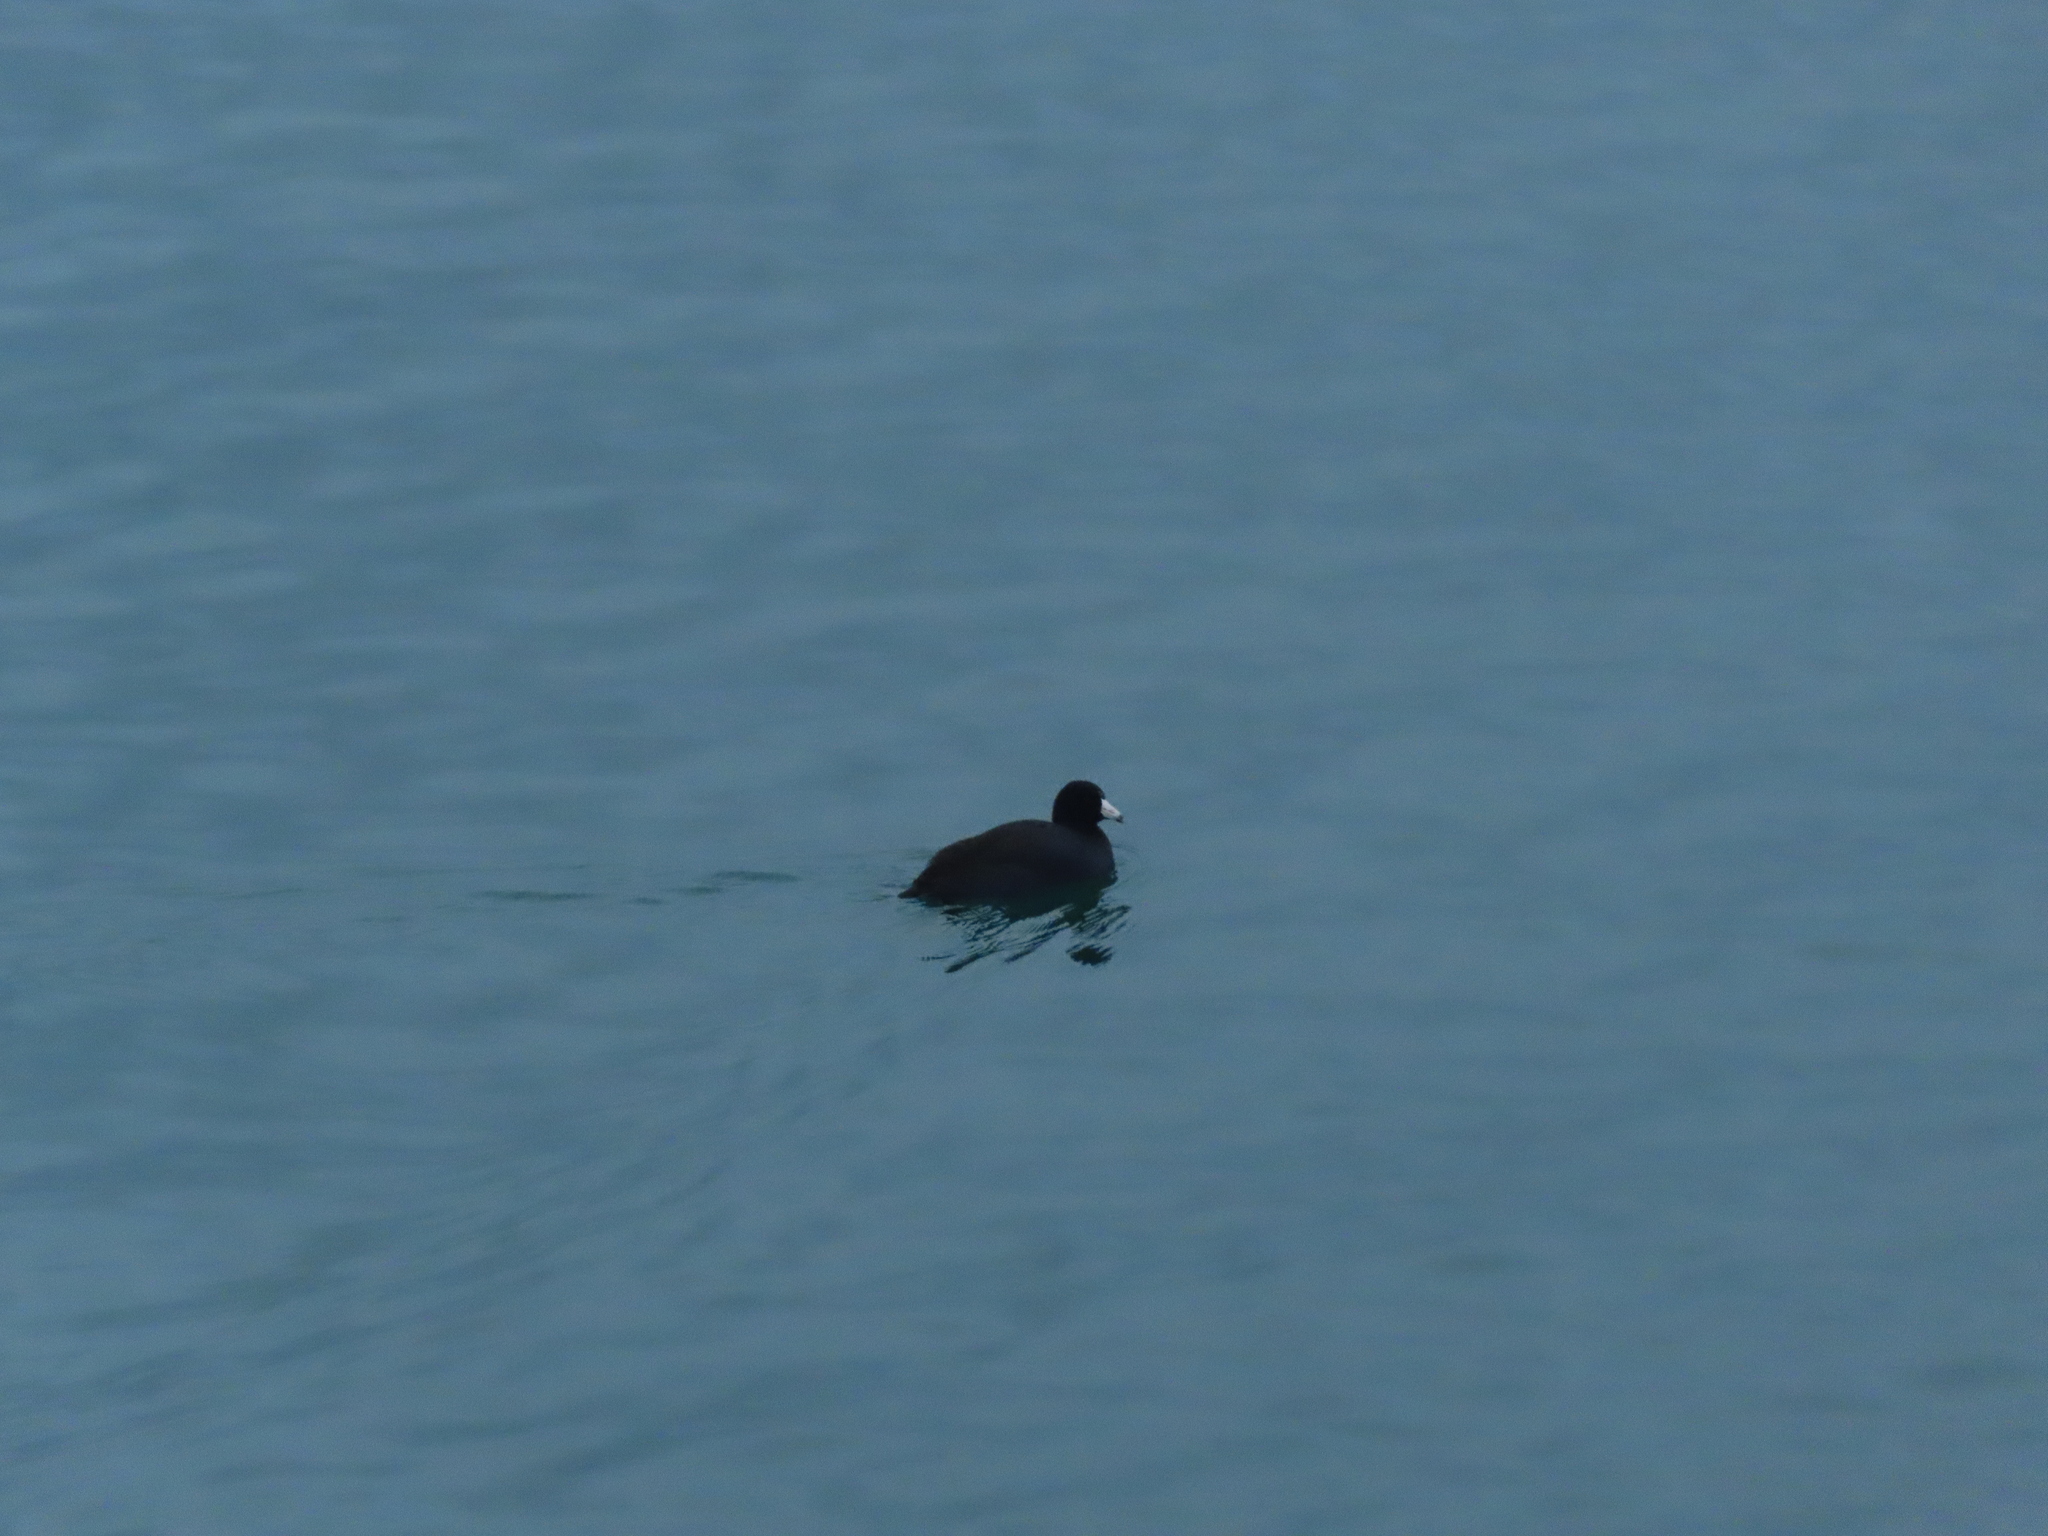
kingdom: Animalia
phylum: Chordata
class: Aves
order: Gruiformes
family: Rallidae
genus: Fulica
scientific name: Fulica americana
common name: American coot
